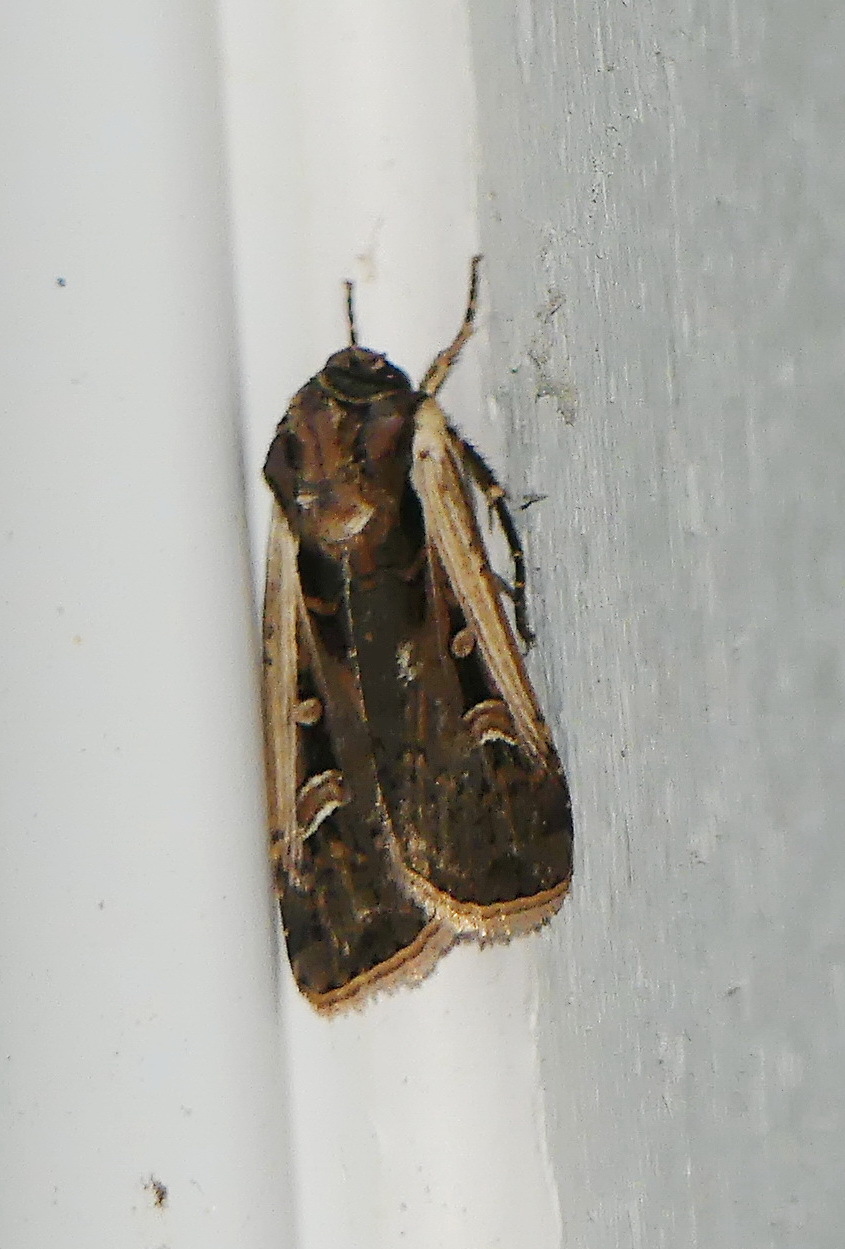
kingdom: Animalia
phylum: Arthropoda
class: Insecta
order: Lepidoptera
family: Noctuidae
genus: Striacosta
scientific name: Striacosta albicosta
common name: Western bean cutworm moth
